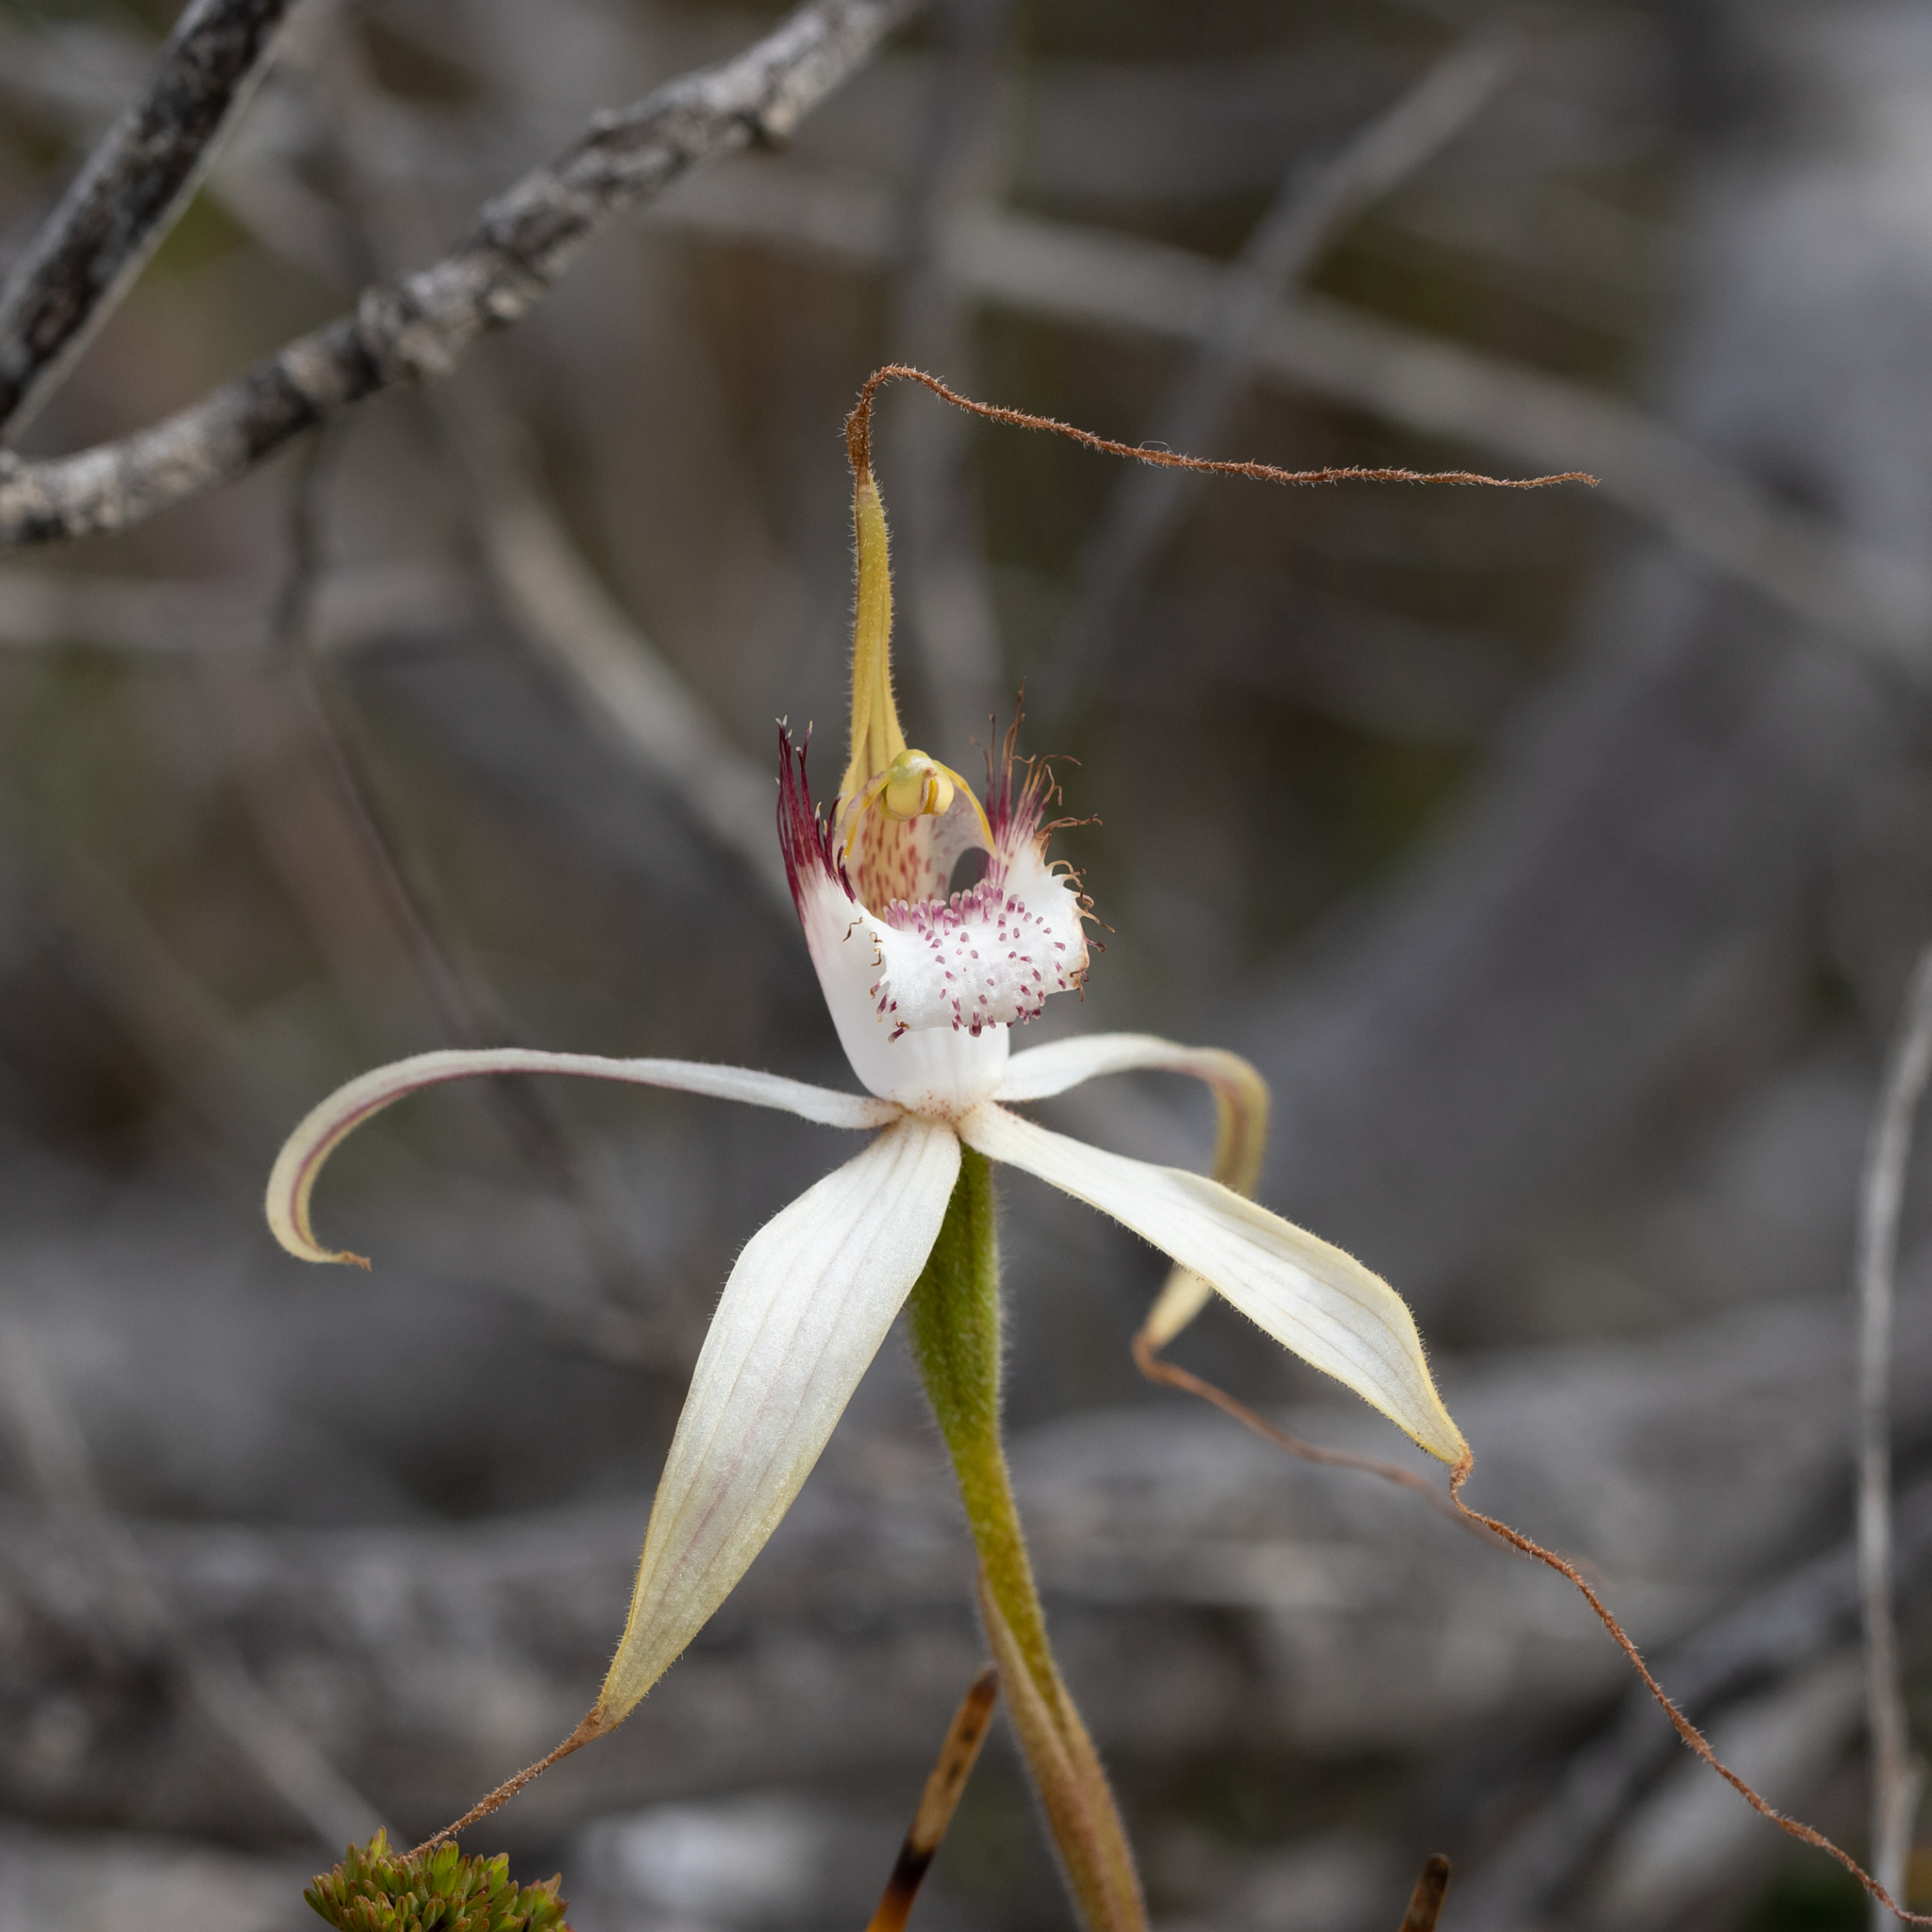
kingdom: Plantae
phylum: Tracheophyta
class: Liliopsida
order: Asparagales
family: Orchidaceae
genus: Caladenia
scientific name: Caladenia longicauda
